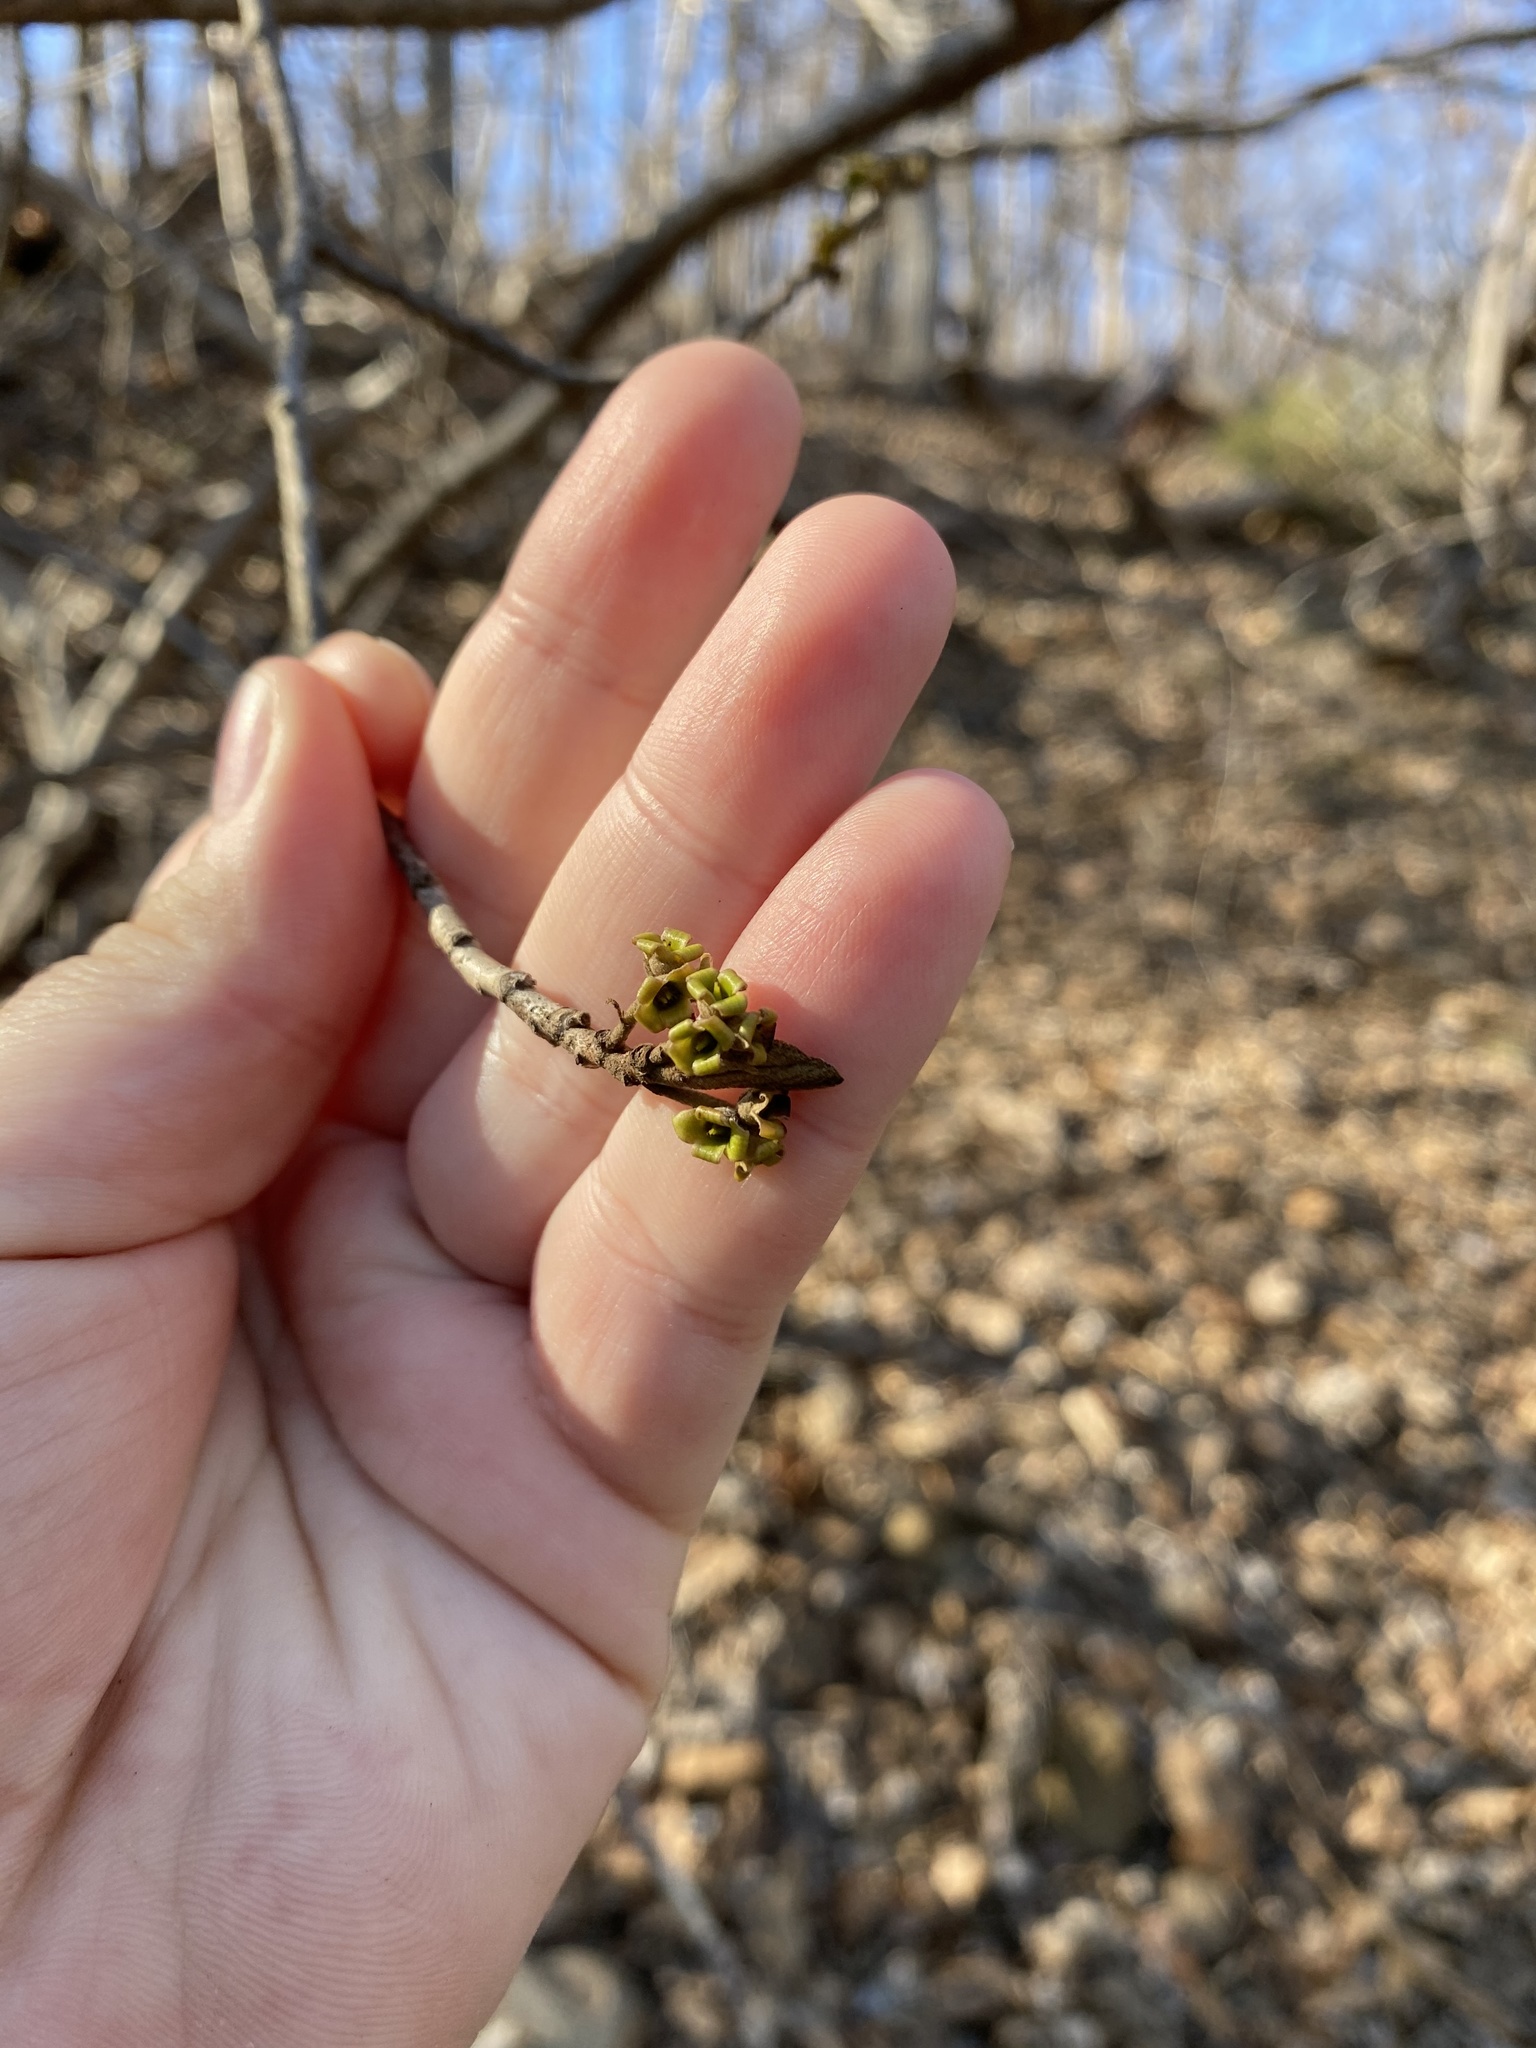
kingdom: Plantae
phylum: Tracheophyta
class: Magnoliopsida
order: Saxifragales
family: Hamamelidaceae
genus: Hamamelis
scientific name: Hamamelis virginiana
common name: Witch-hazel
